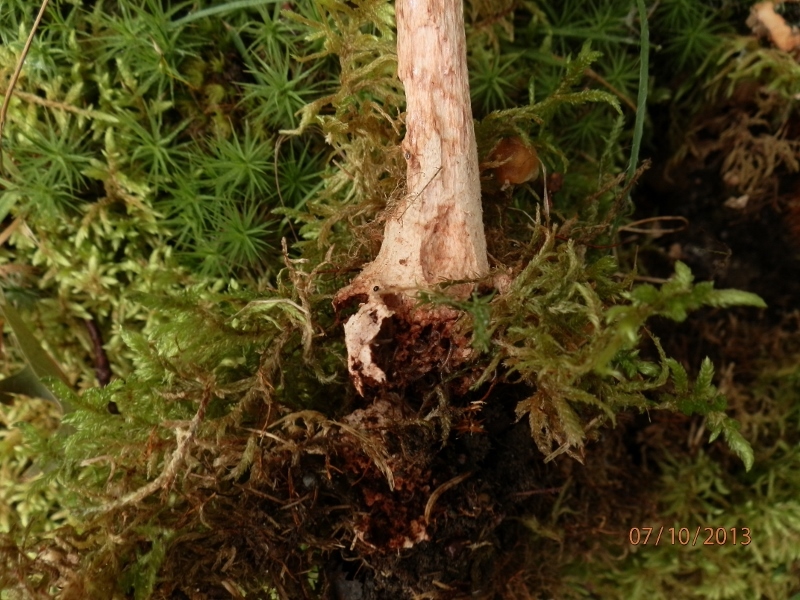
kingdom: Fungi
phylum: Basidiomycota
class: Agaricomycetes
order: Agaricales
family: Amanitaceae
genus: Amanita
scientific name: Amanita rubescens
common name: Blusher
